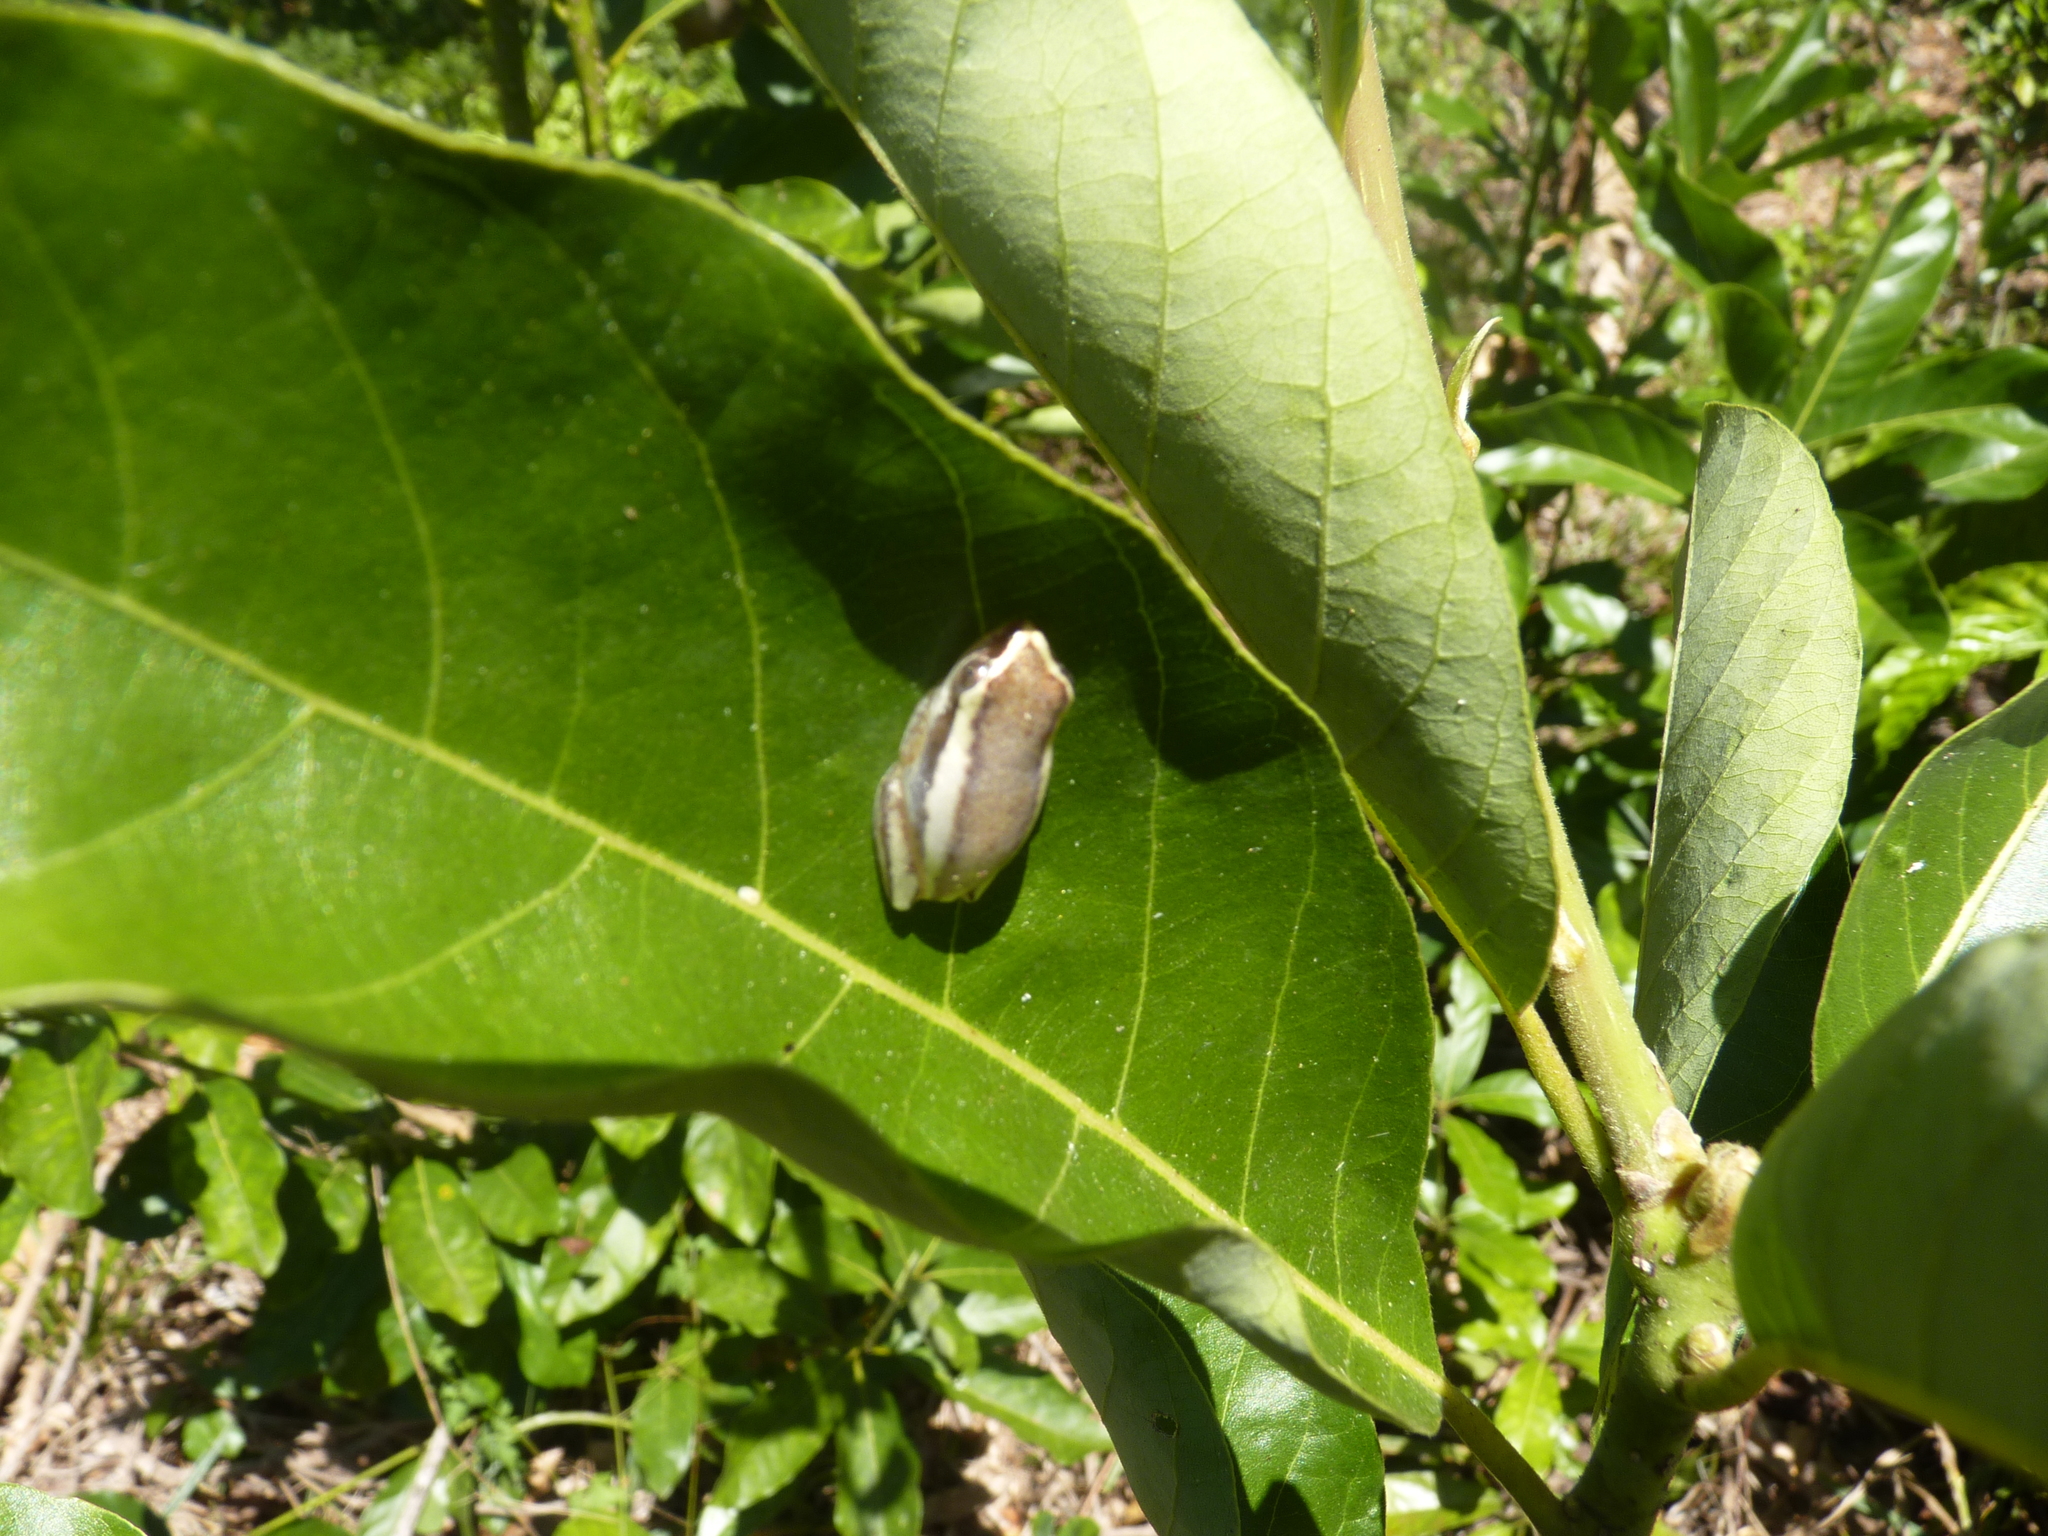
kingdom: Animalia
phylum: Chordata
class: Amphibia
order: Anura
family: Hyperoliidae
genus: Heterixalus
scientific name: Heterixalus luteostriatus
